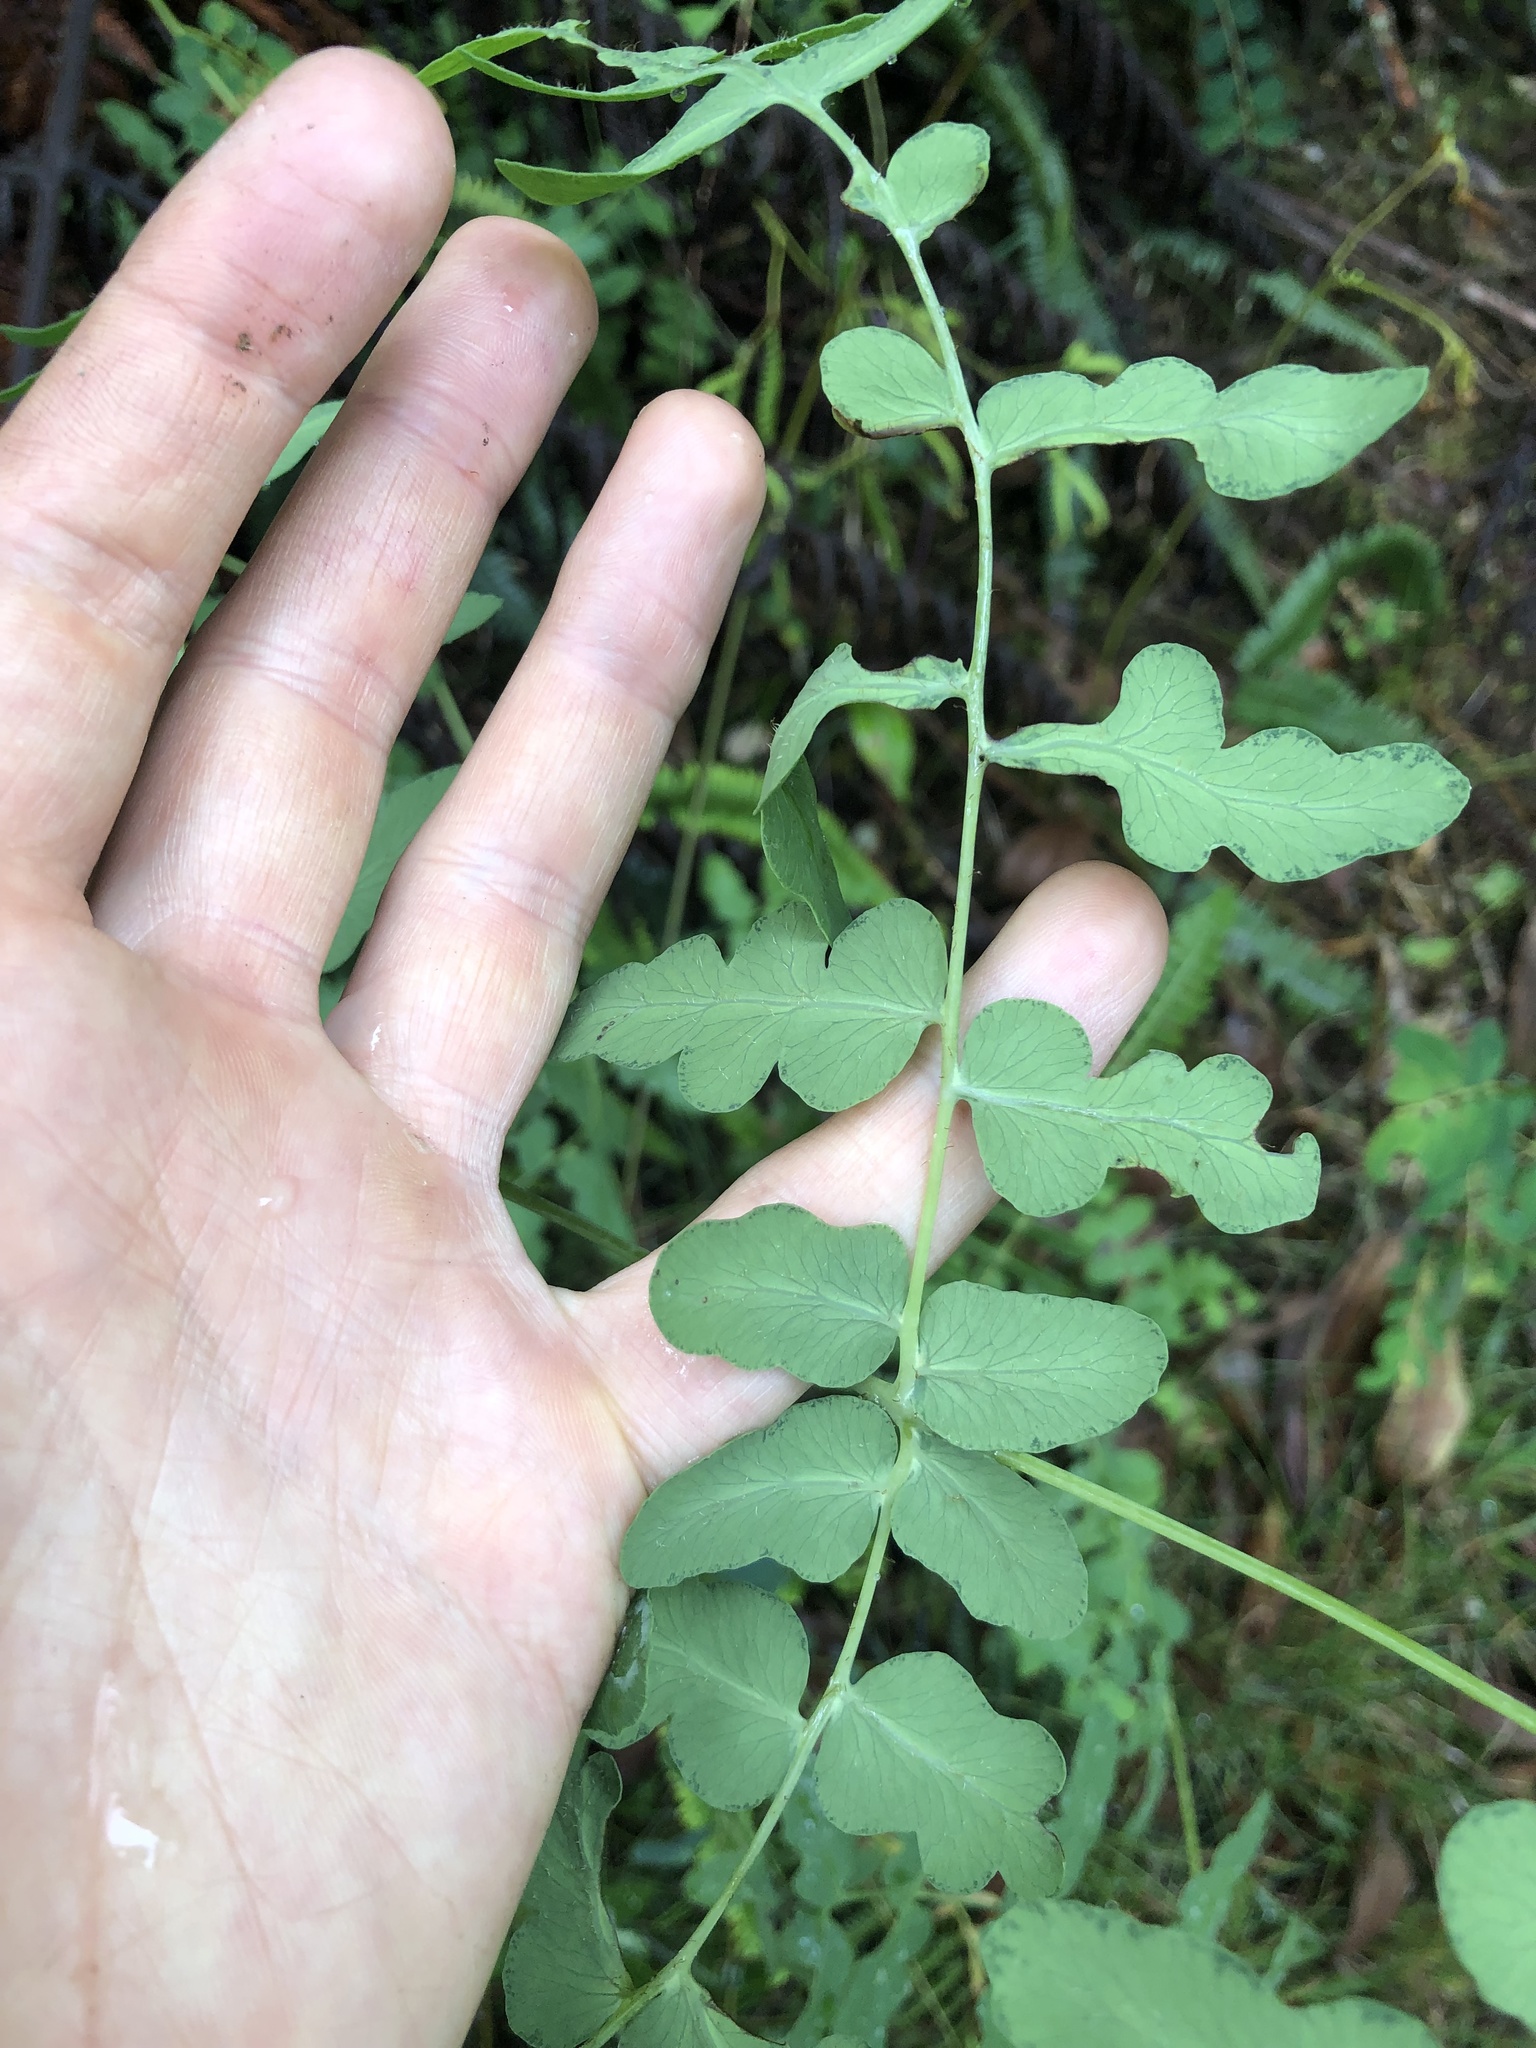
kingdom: Plantae
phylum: Tracheophyta
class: Polypodiopsida
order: Polypodiales
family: Dennstaedtiaceae
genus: Histiopteris
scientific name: Histiopteris incisa
